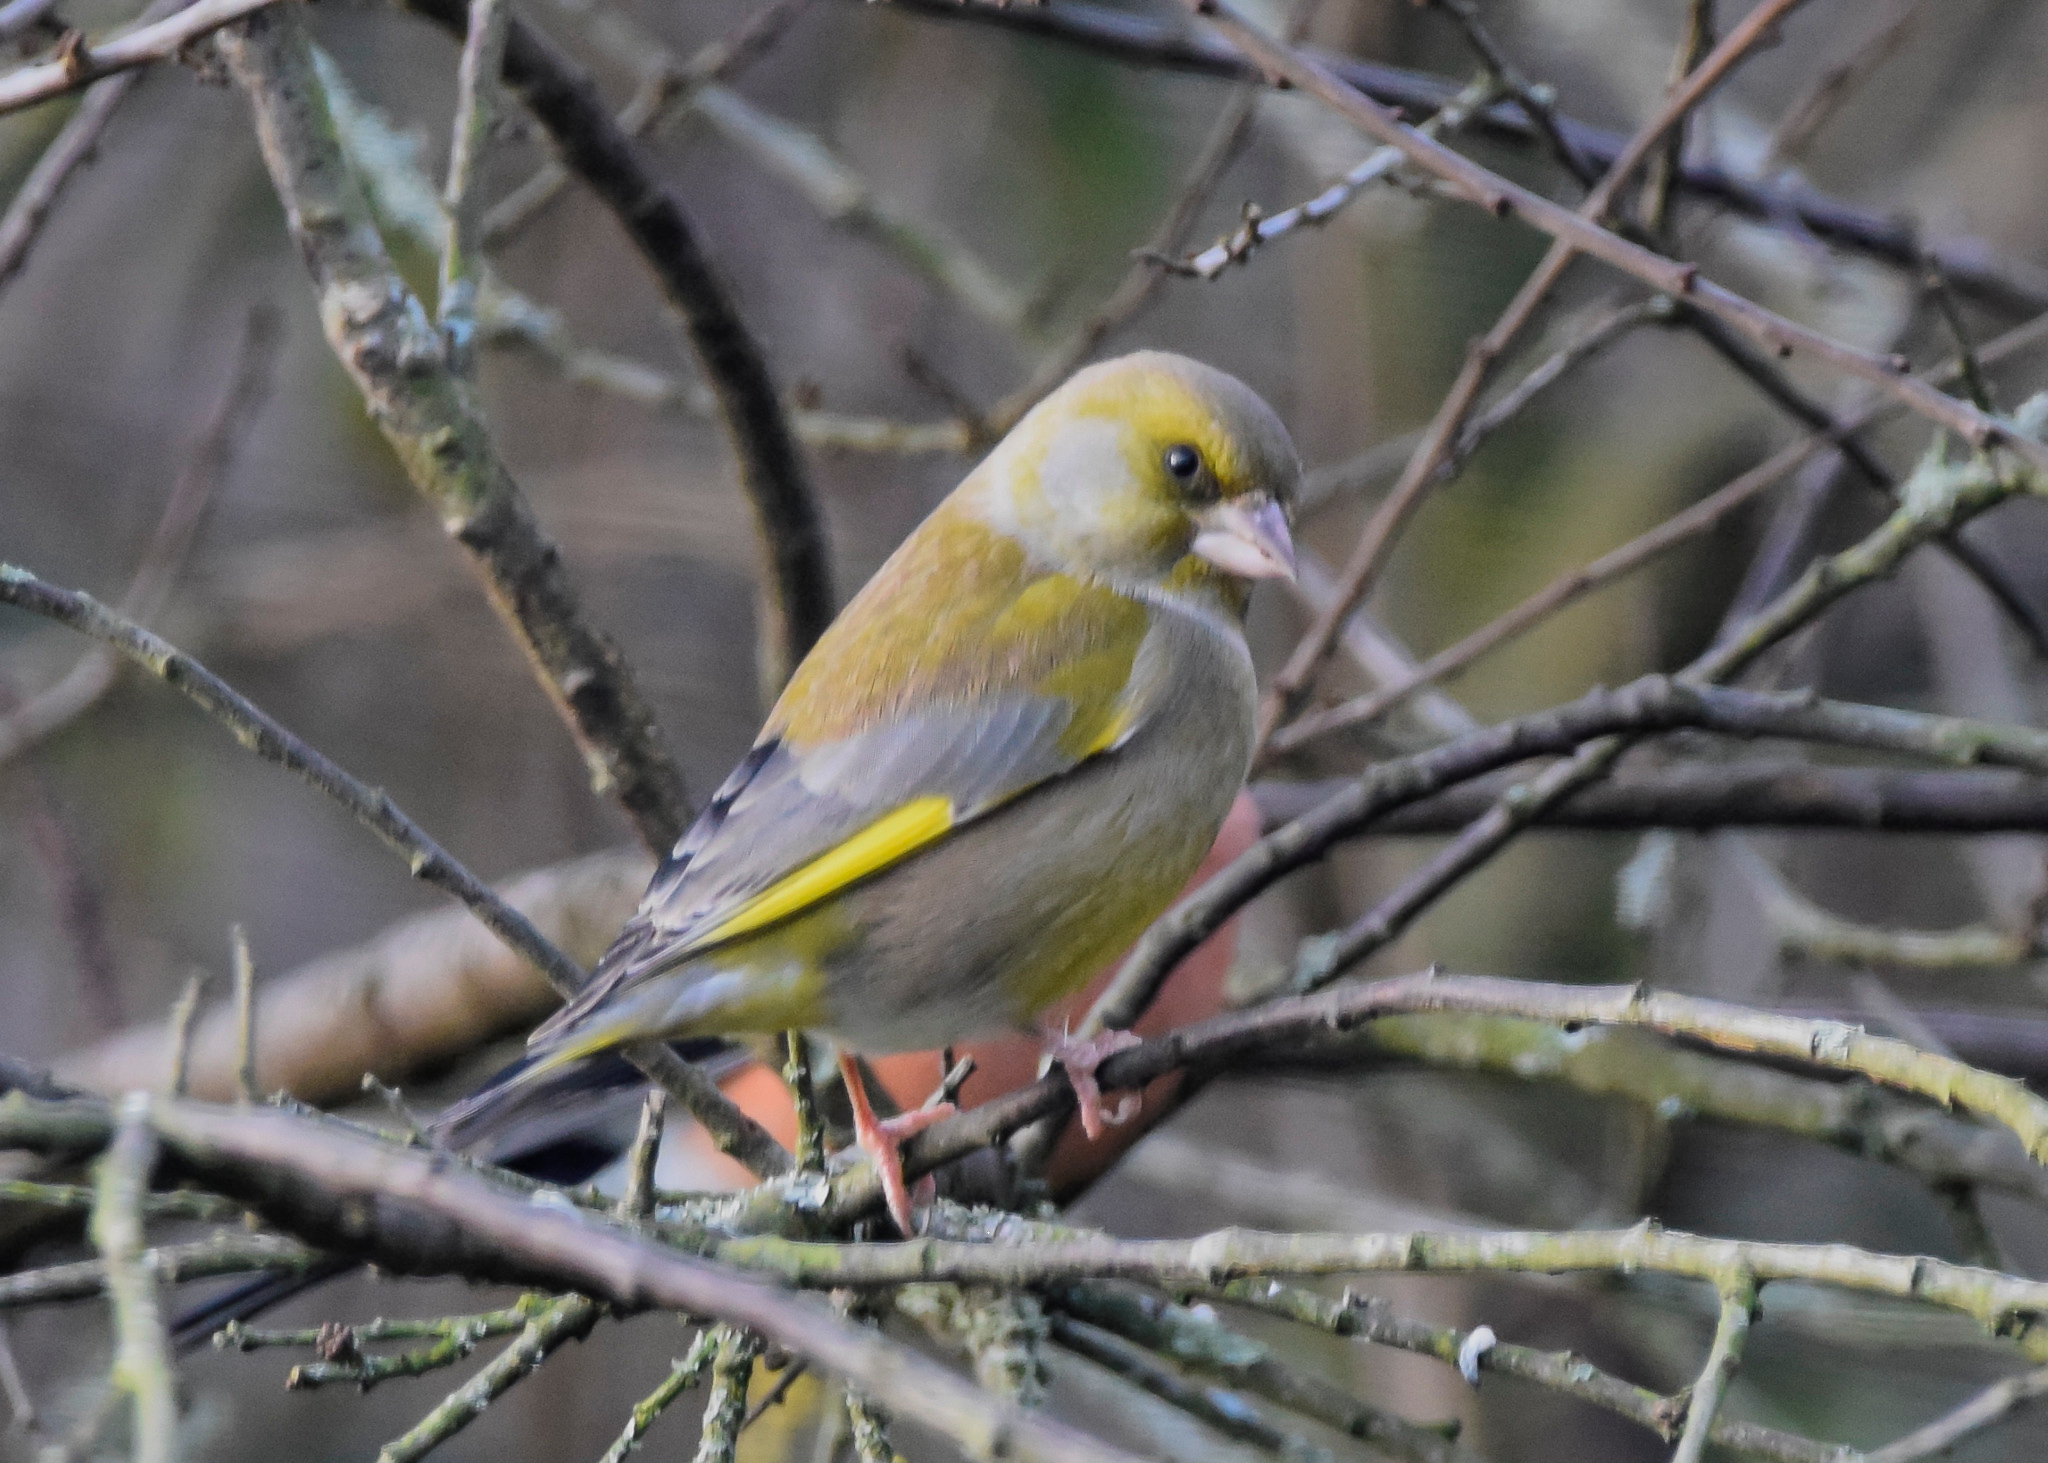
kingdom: Plantae
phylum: Tracheophyta
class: Liliopsida
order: Poales
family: Poaceae
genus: Chloris
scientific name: Chloris chloris
